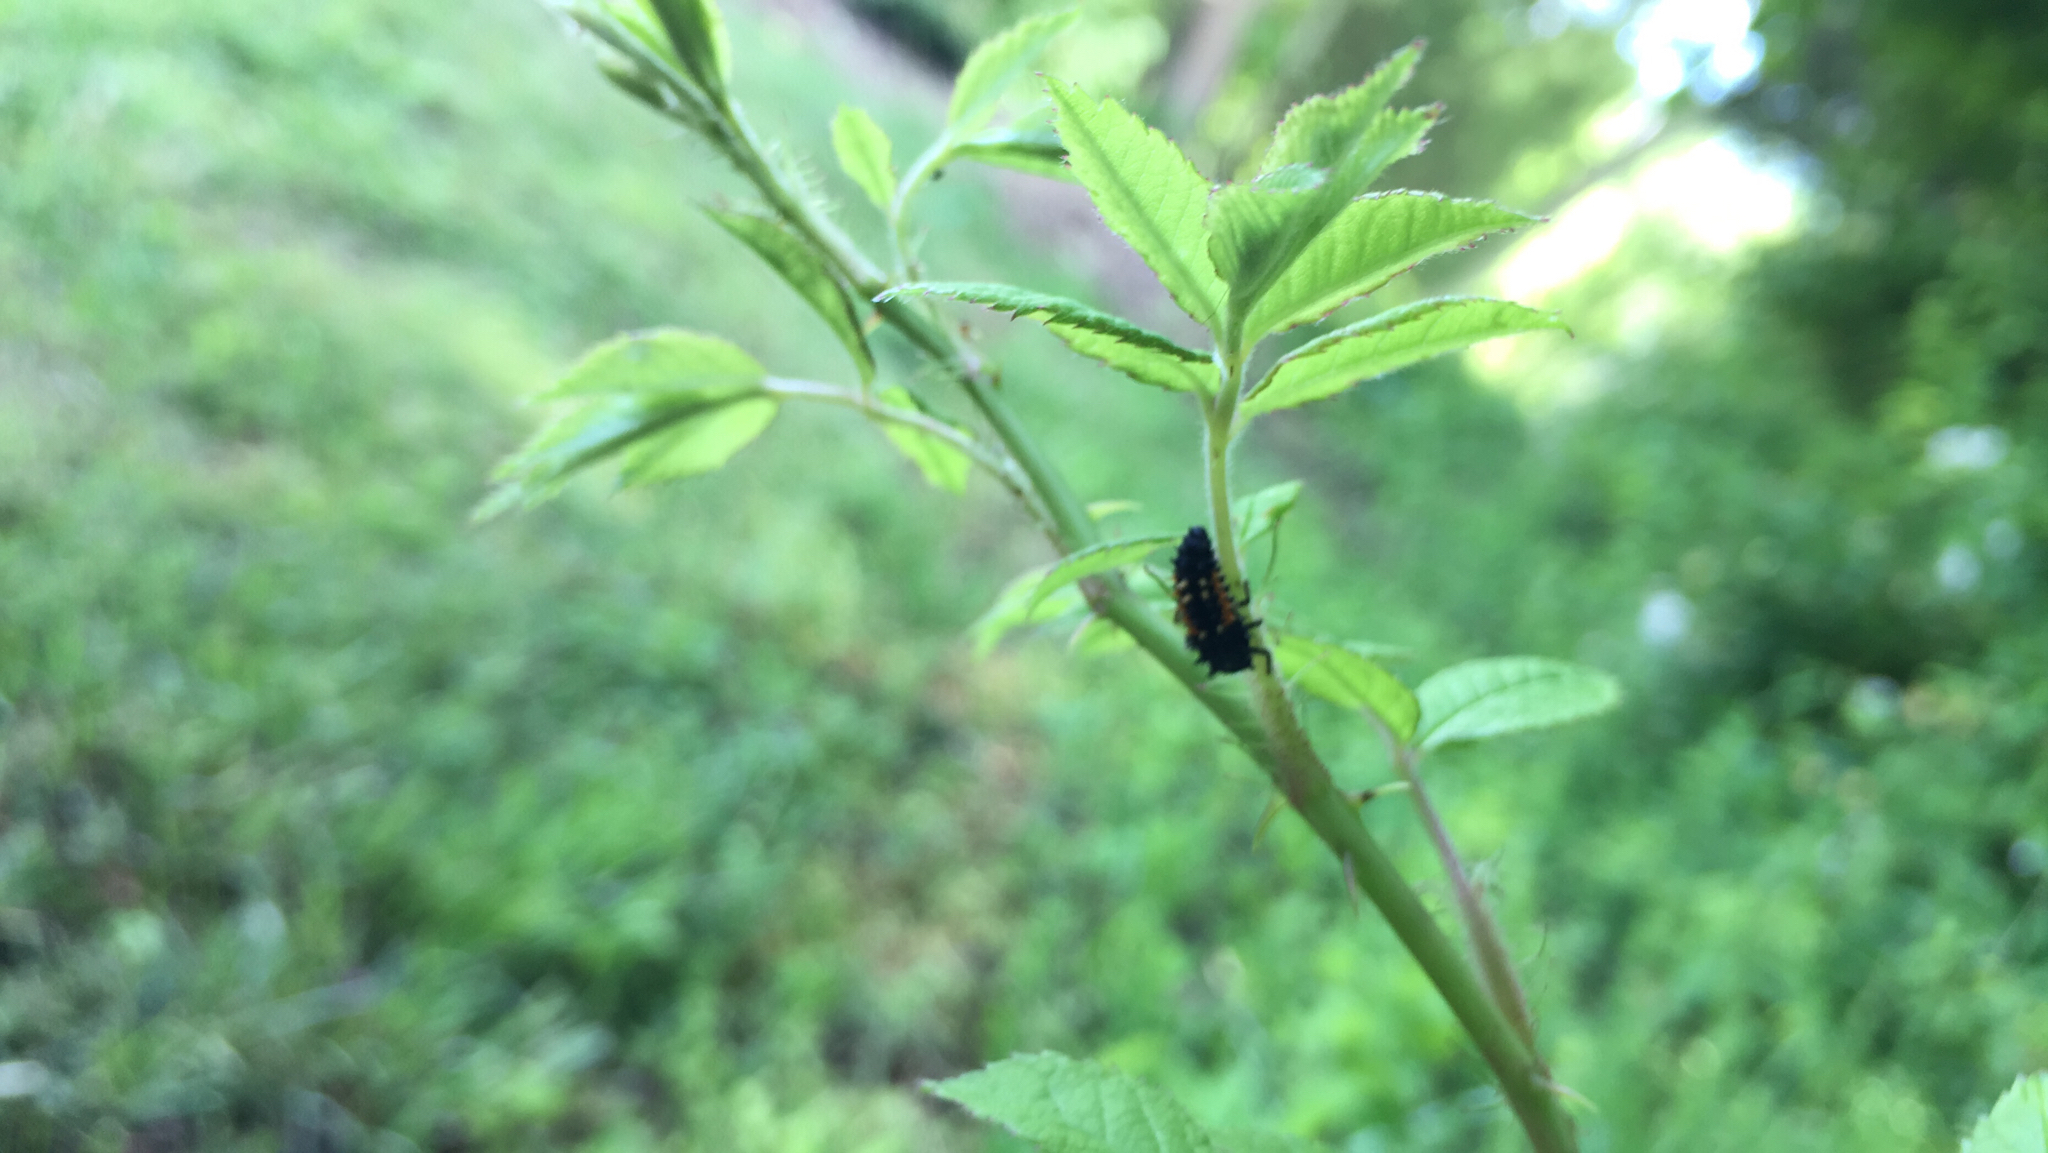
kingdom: Animalia
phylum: Arthropoda
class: Insecta
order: Coleoptera
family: Coccinellidae
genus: Harmonia
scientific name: Harmonia axyridis
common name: Harlequin ladybird
